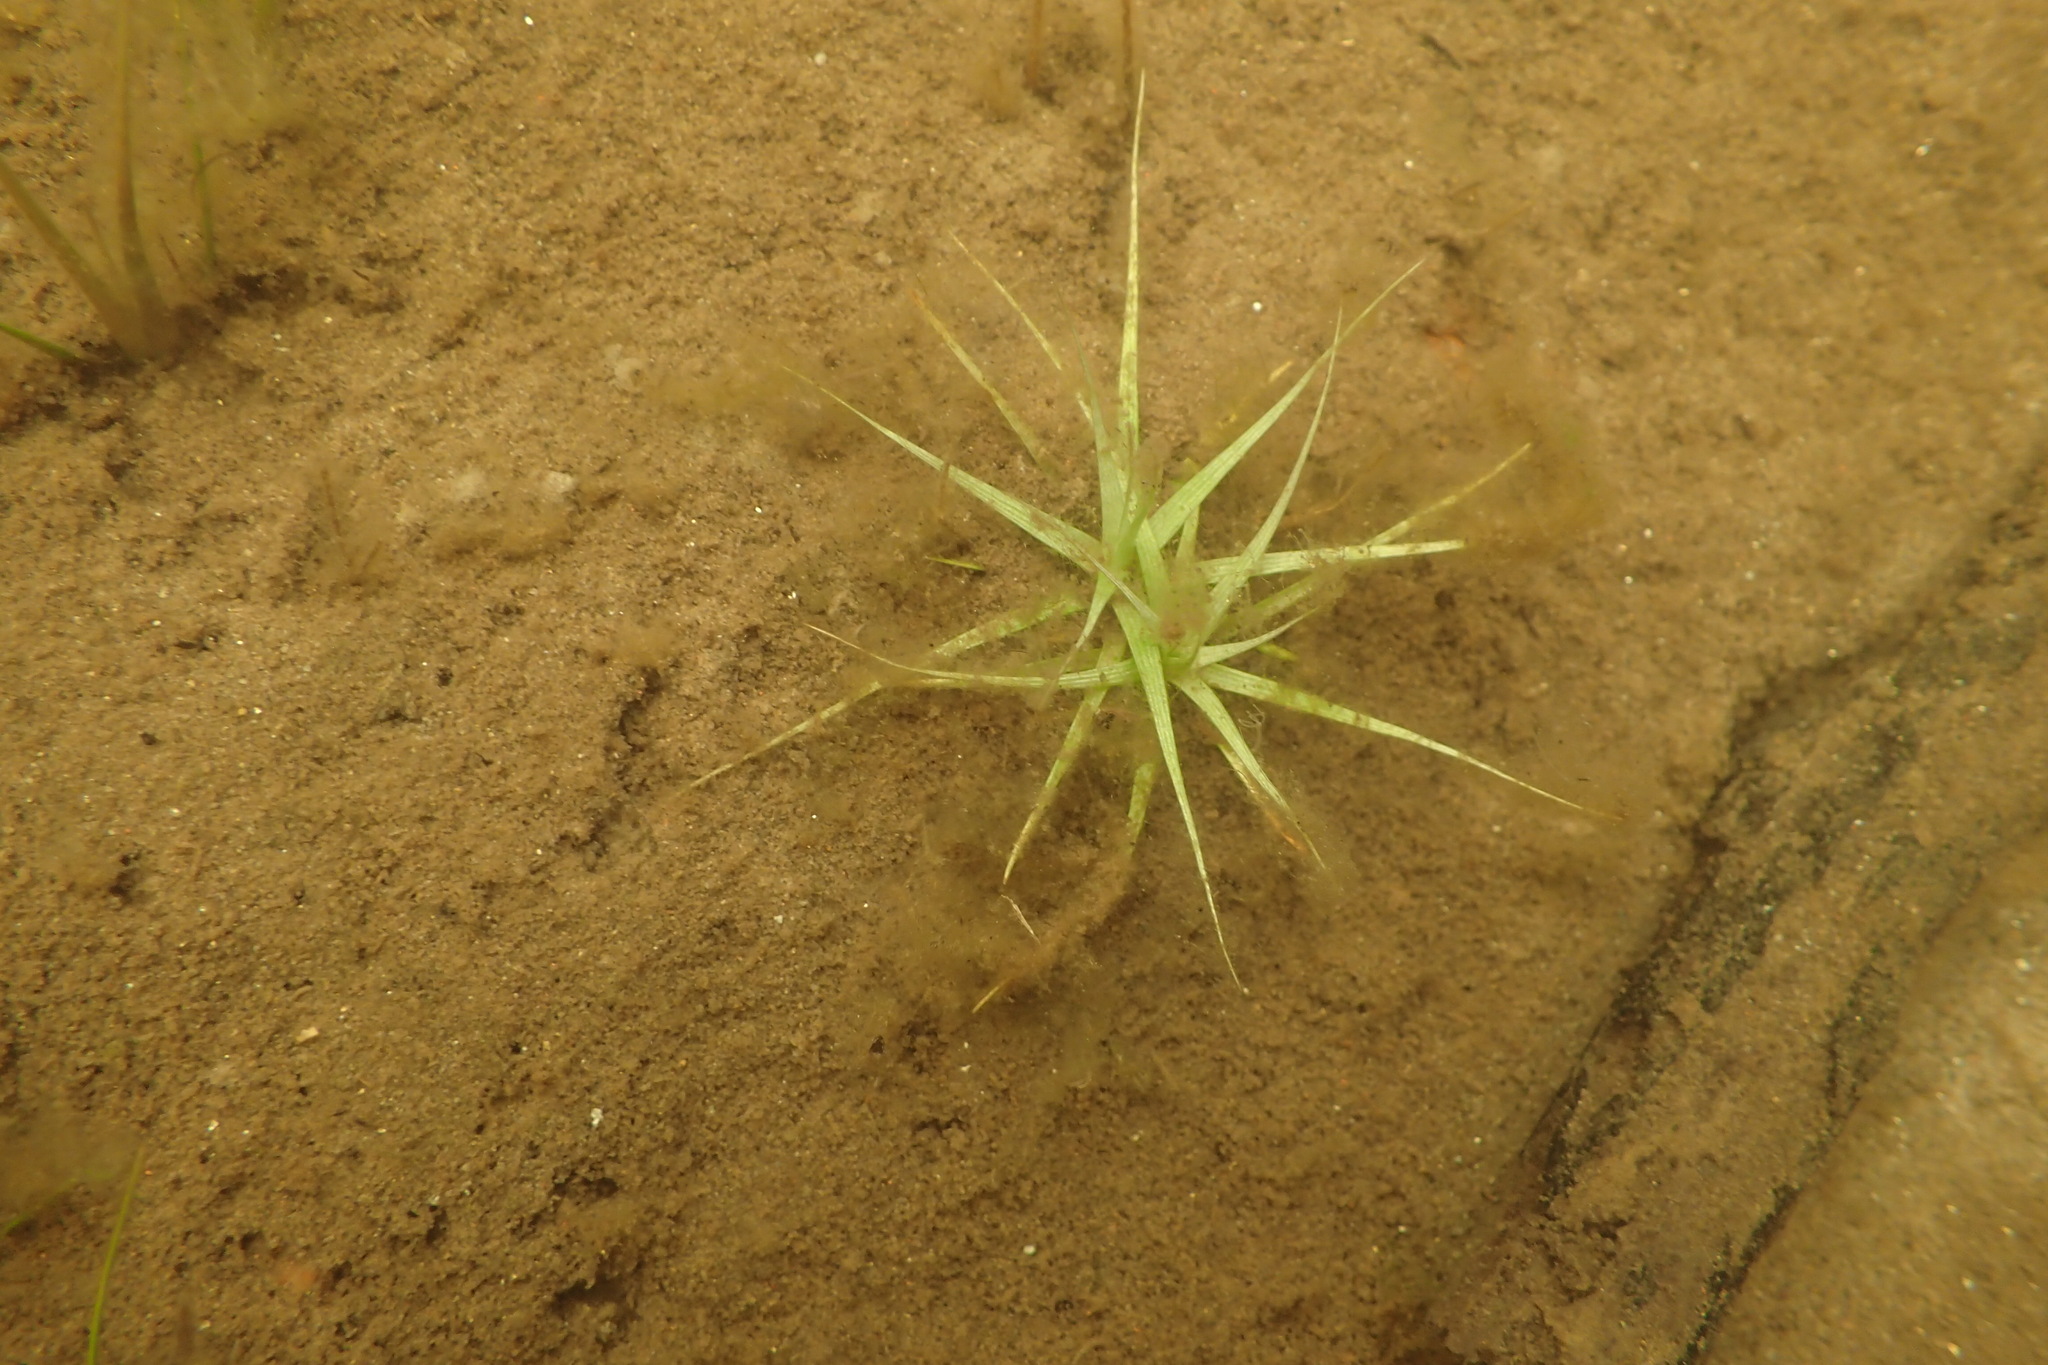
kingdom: Plantae
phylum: Tracheophyta
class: Liliopsida
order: Poales
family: Eriocaulaceae
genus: Eriocaulon
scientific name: Eriocaulon aquaticum
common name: Pipewort
